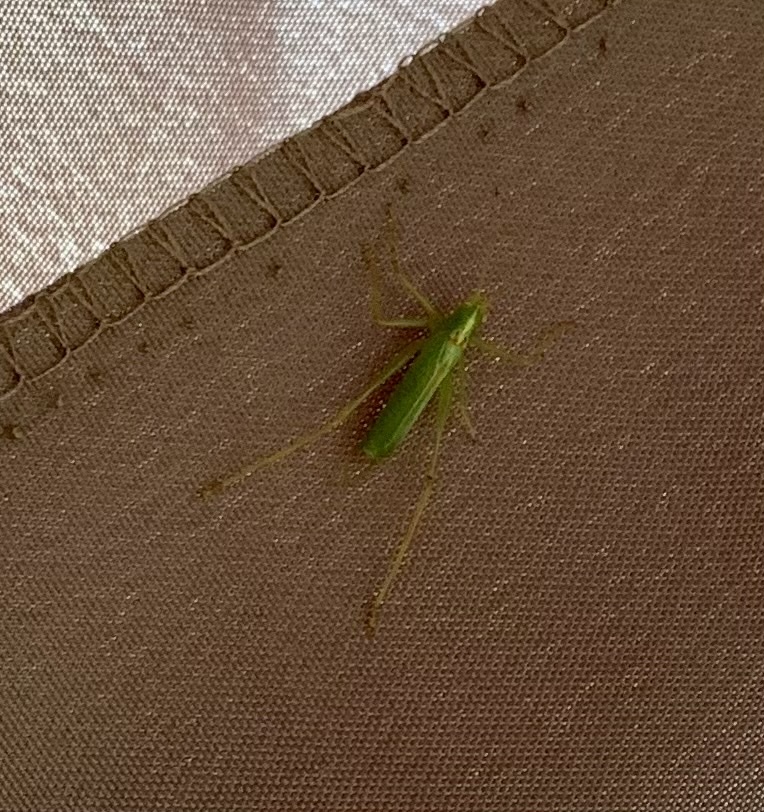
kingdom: Animalia
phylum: Arthropoda
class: Insecta
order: Orthoptera
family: Tettigoniidae
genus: Meconema
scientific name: Meconema thalassinum
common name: Oak bush-cricket
